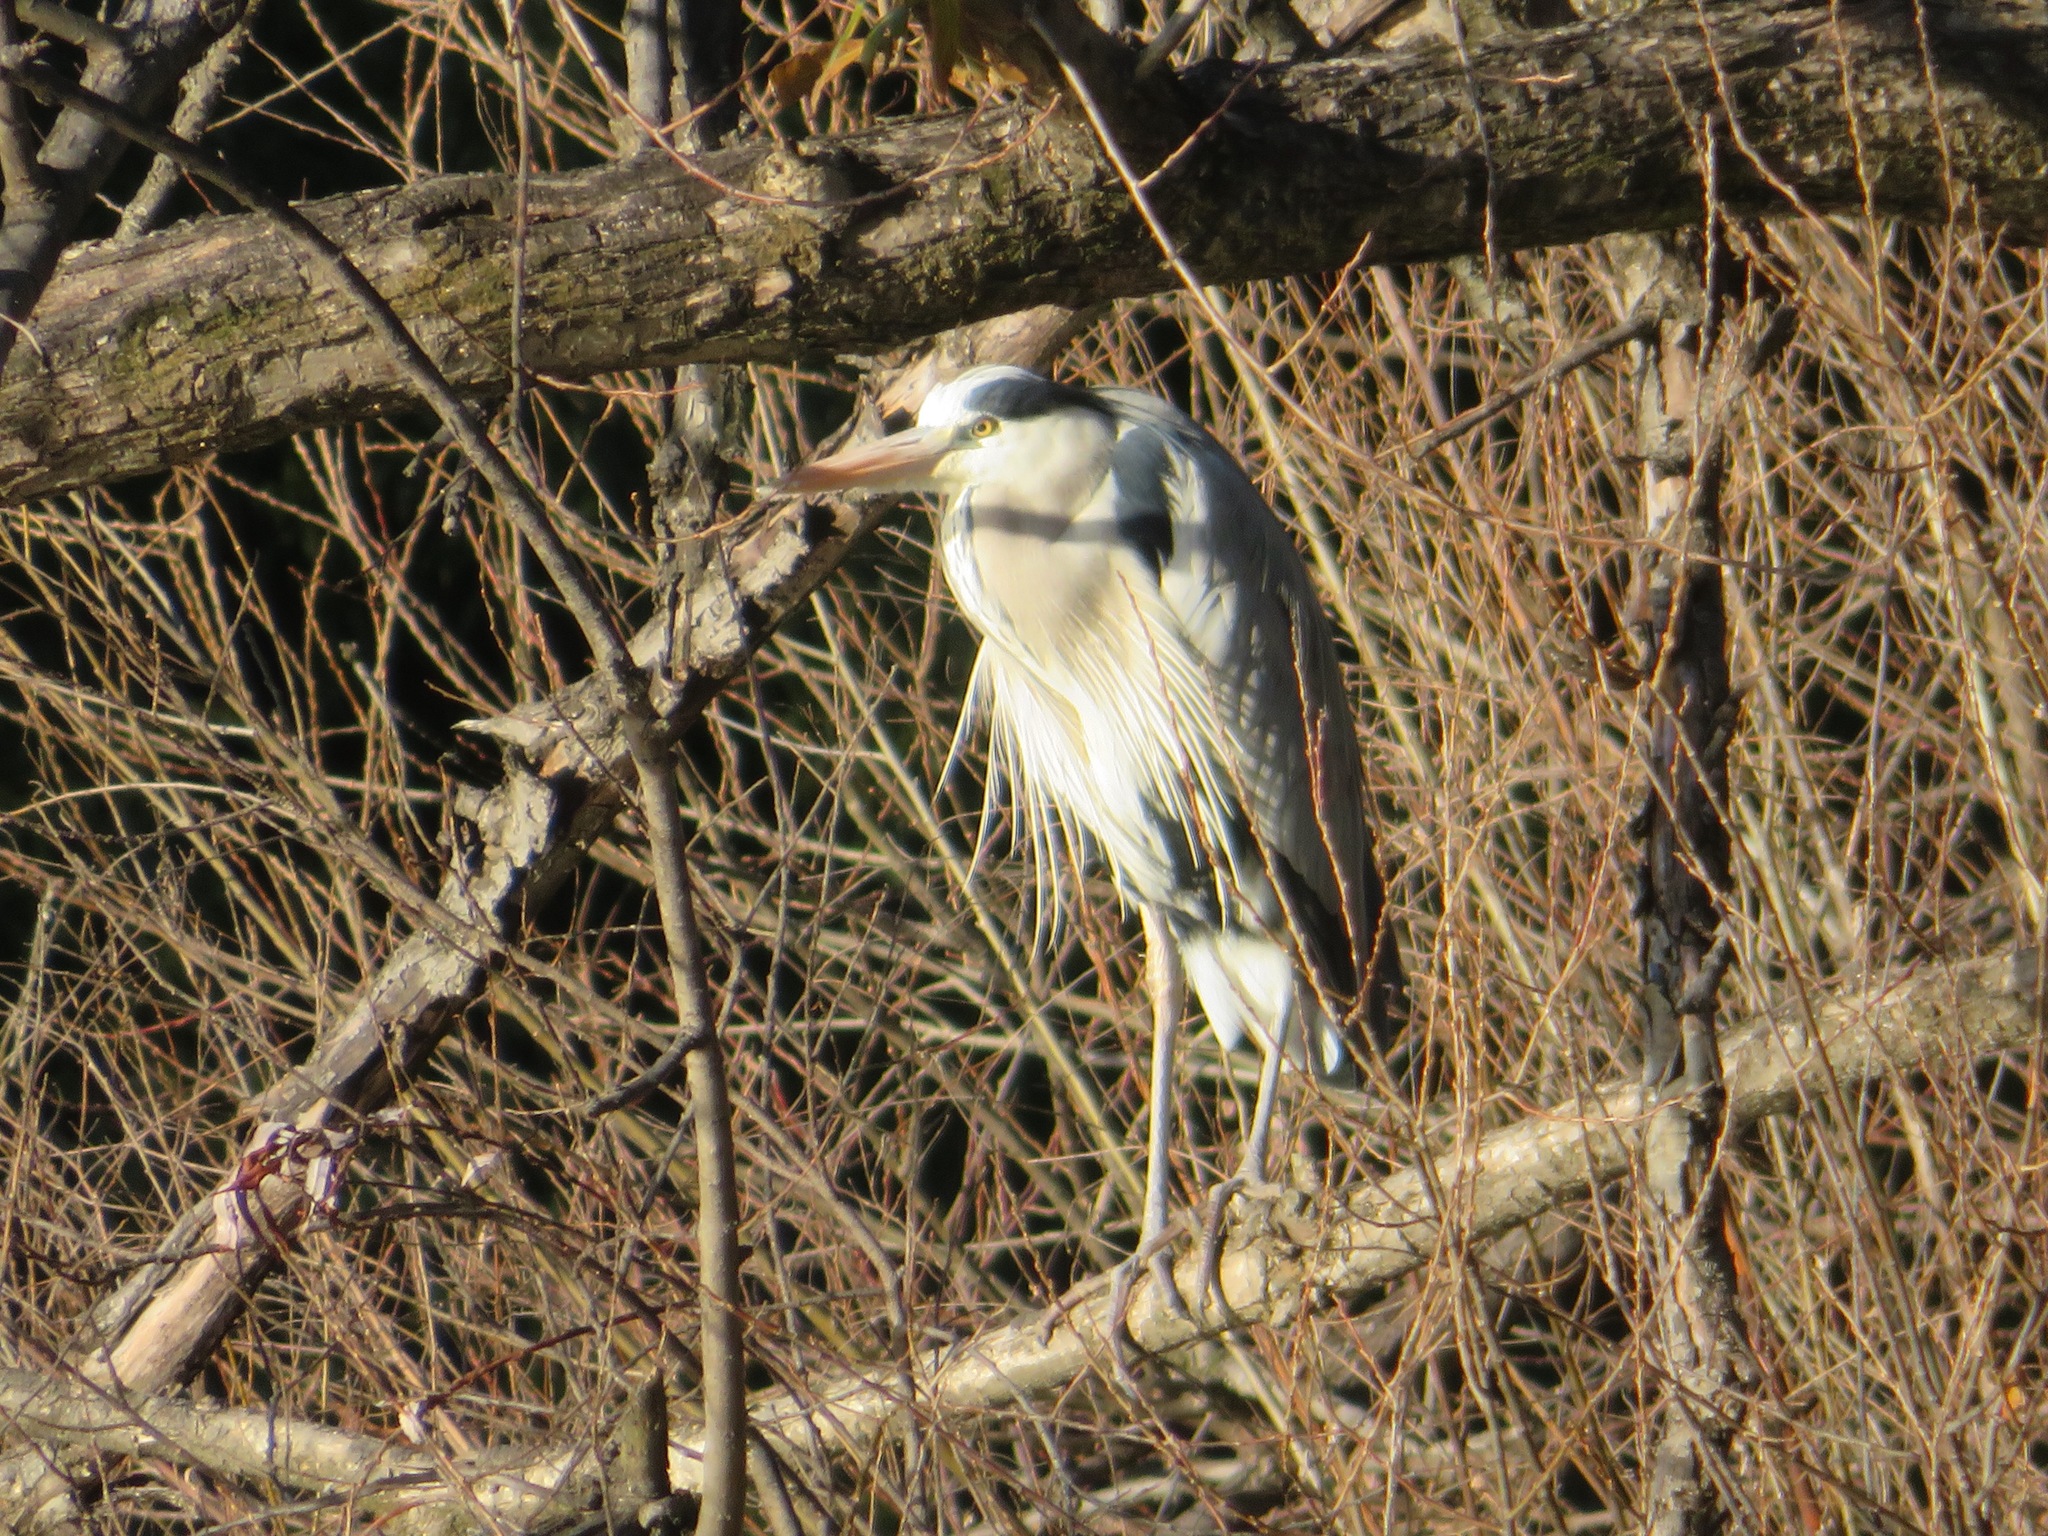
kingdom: Animalia
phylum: Chordata
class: Aves
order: Pelecaniformes
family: Ardeidae
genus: Ardea
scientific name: Ardea cinerea
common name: Grey heron
